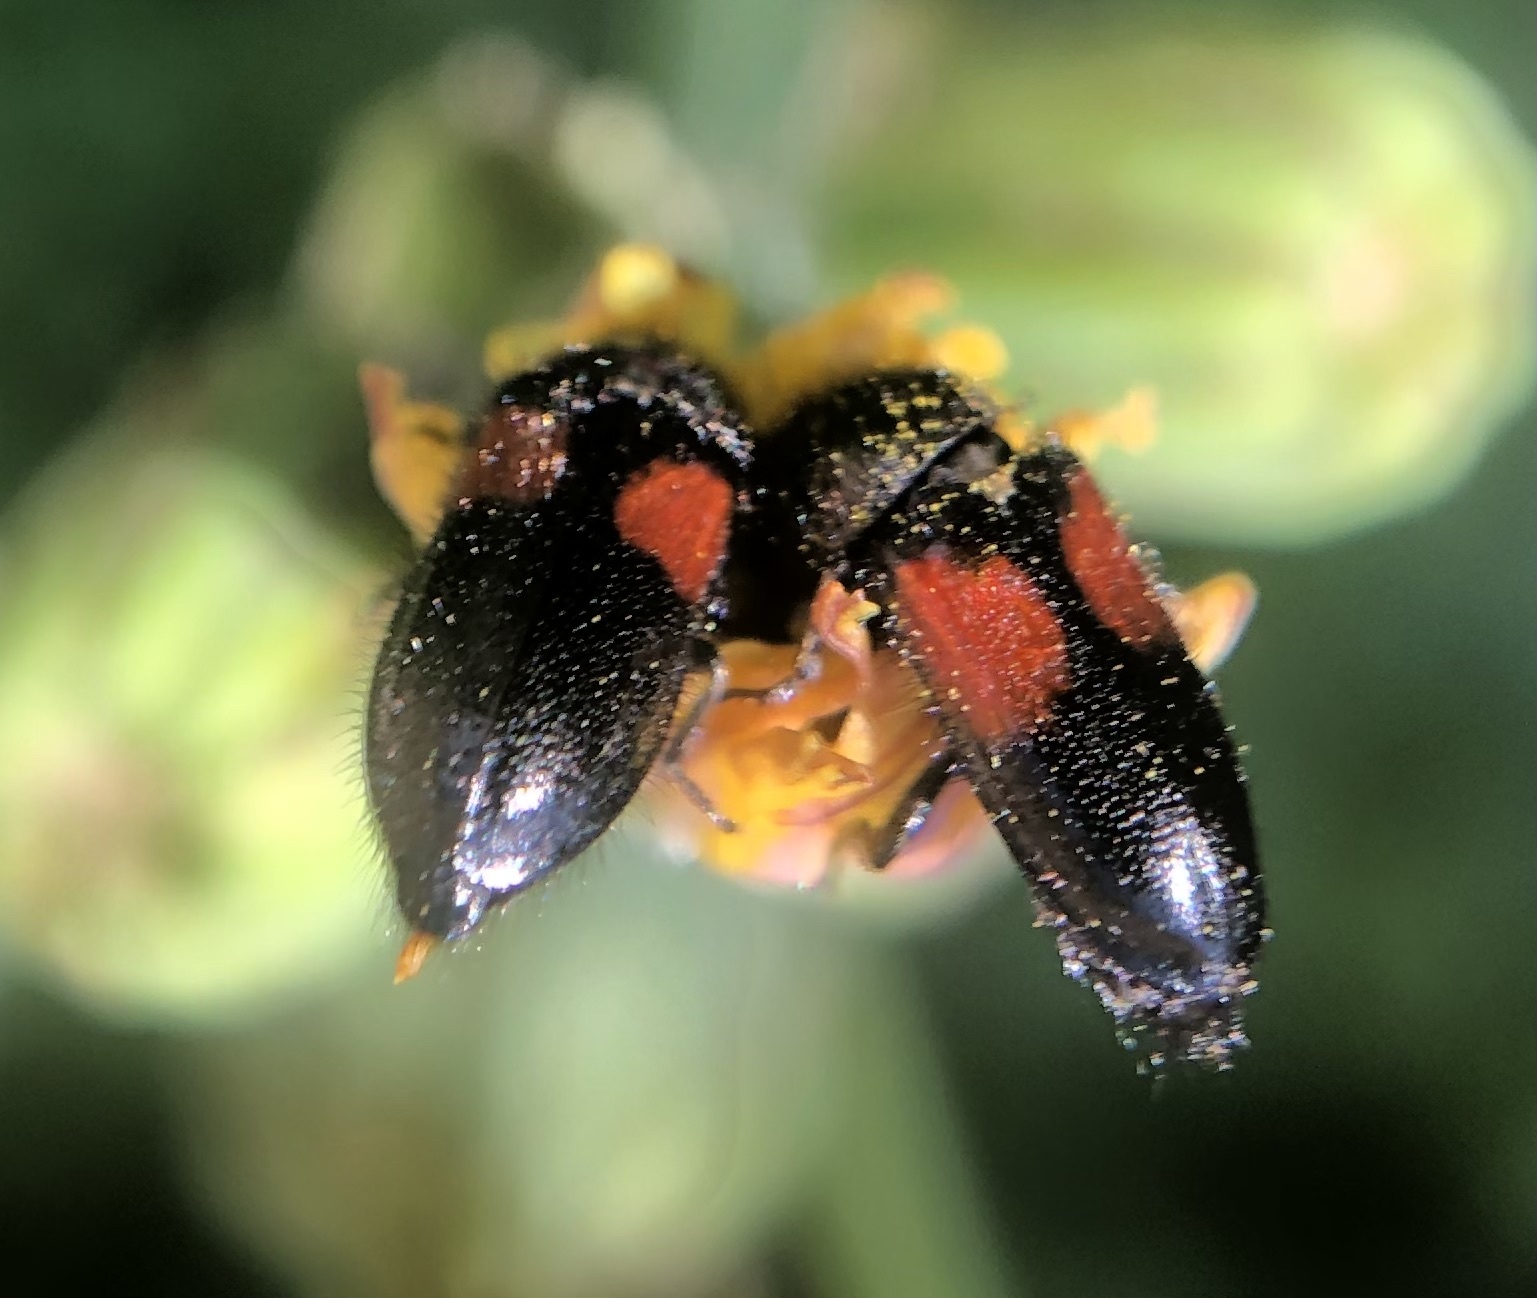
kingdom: Animalia
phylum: Arthropoda
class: Insecta
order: Coleoptera
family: Melyridae
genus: Divales
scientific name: Divales bipustulatus
